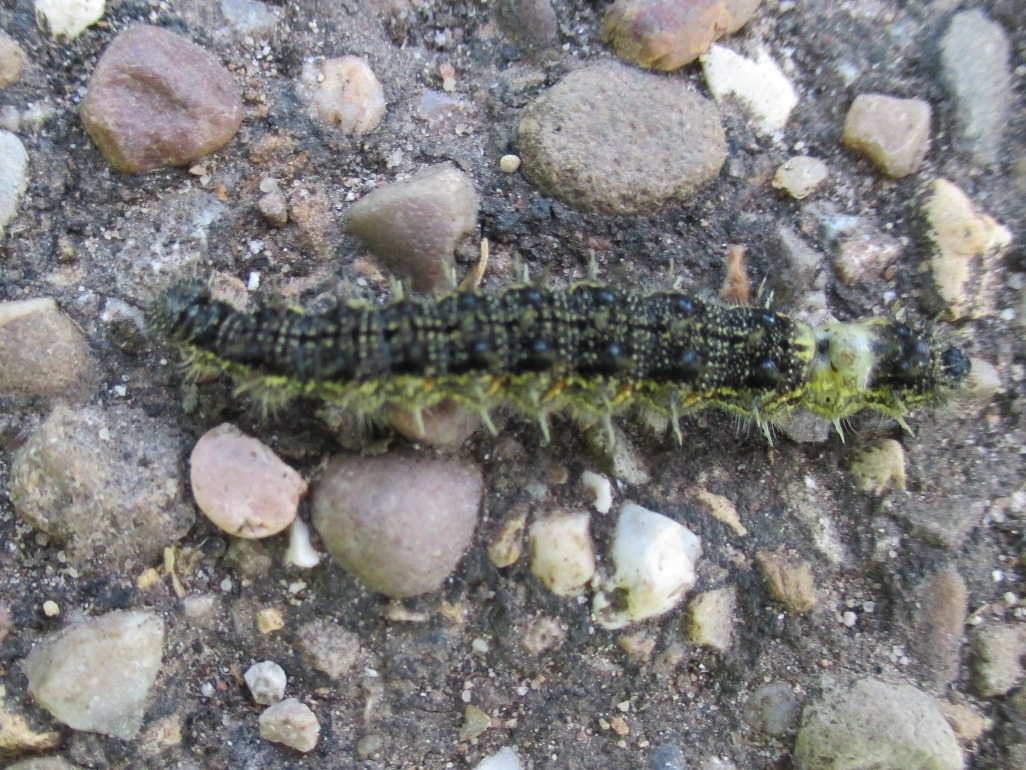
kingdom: Animalia
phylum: Arthropoda
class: Insecta
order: Lepidoptera
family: Nymphalidae
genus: Aglais
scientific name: Aglais urticae
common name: Small tortoiseshell
